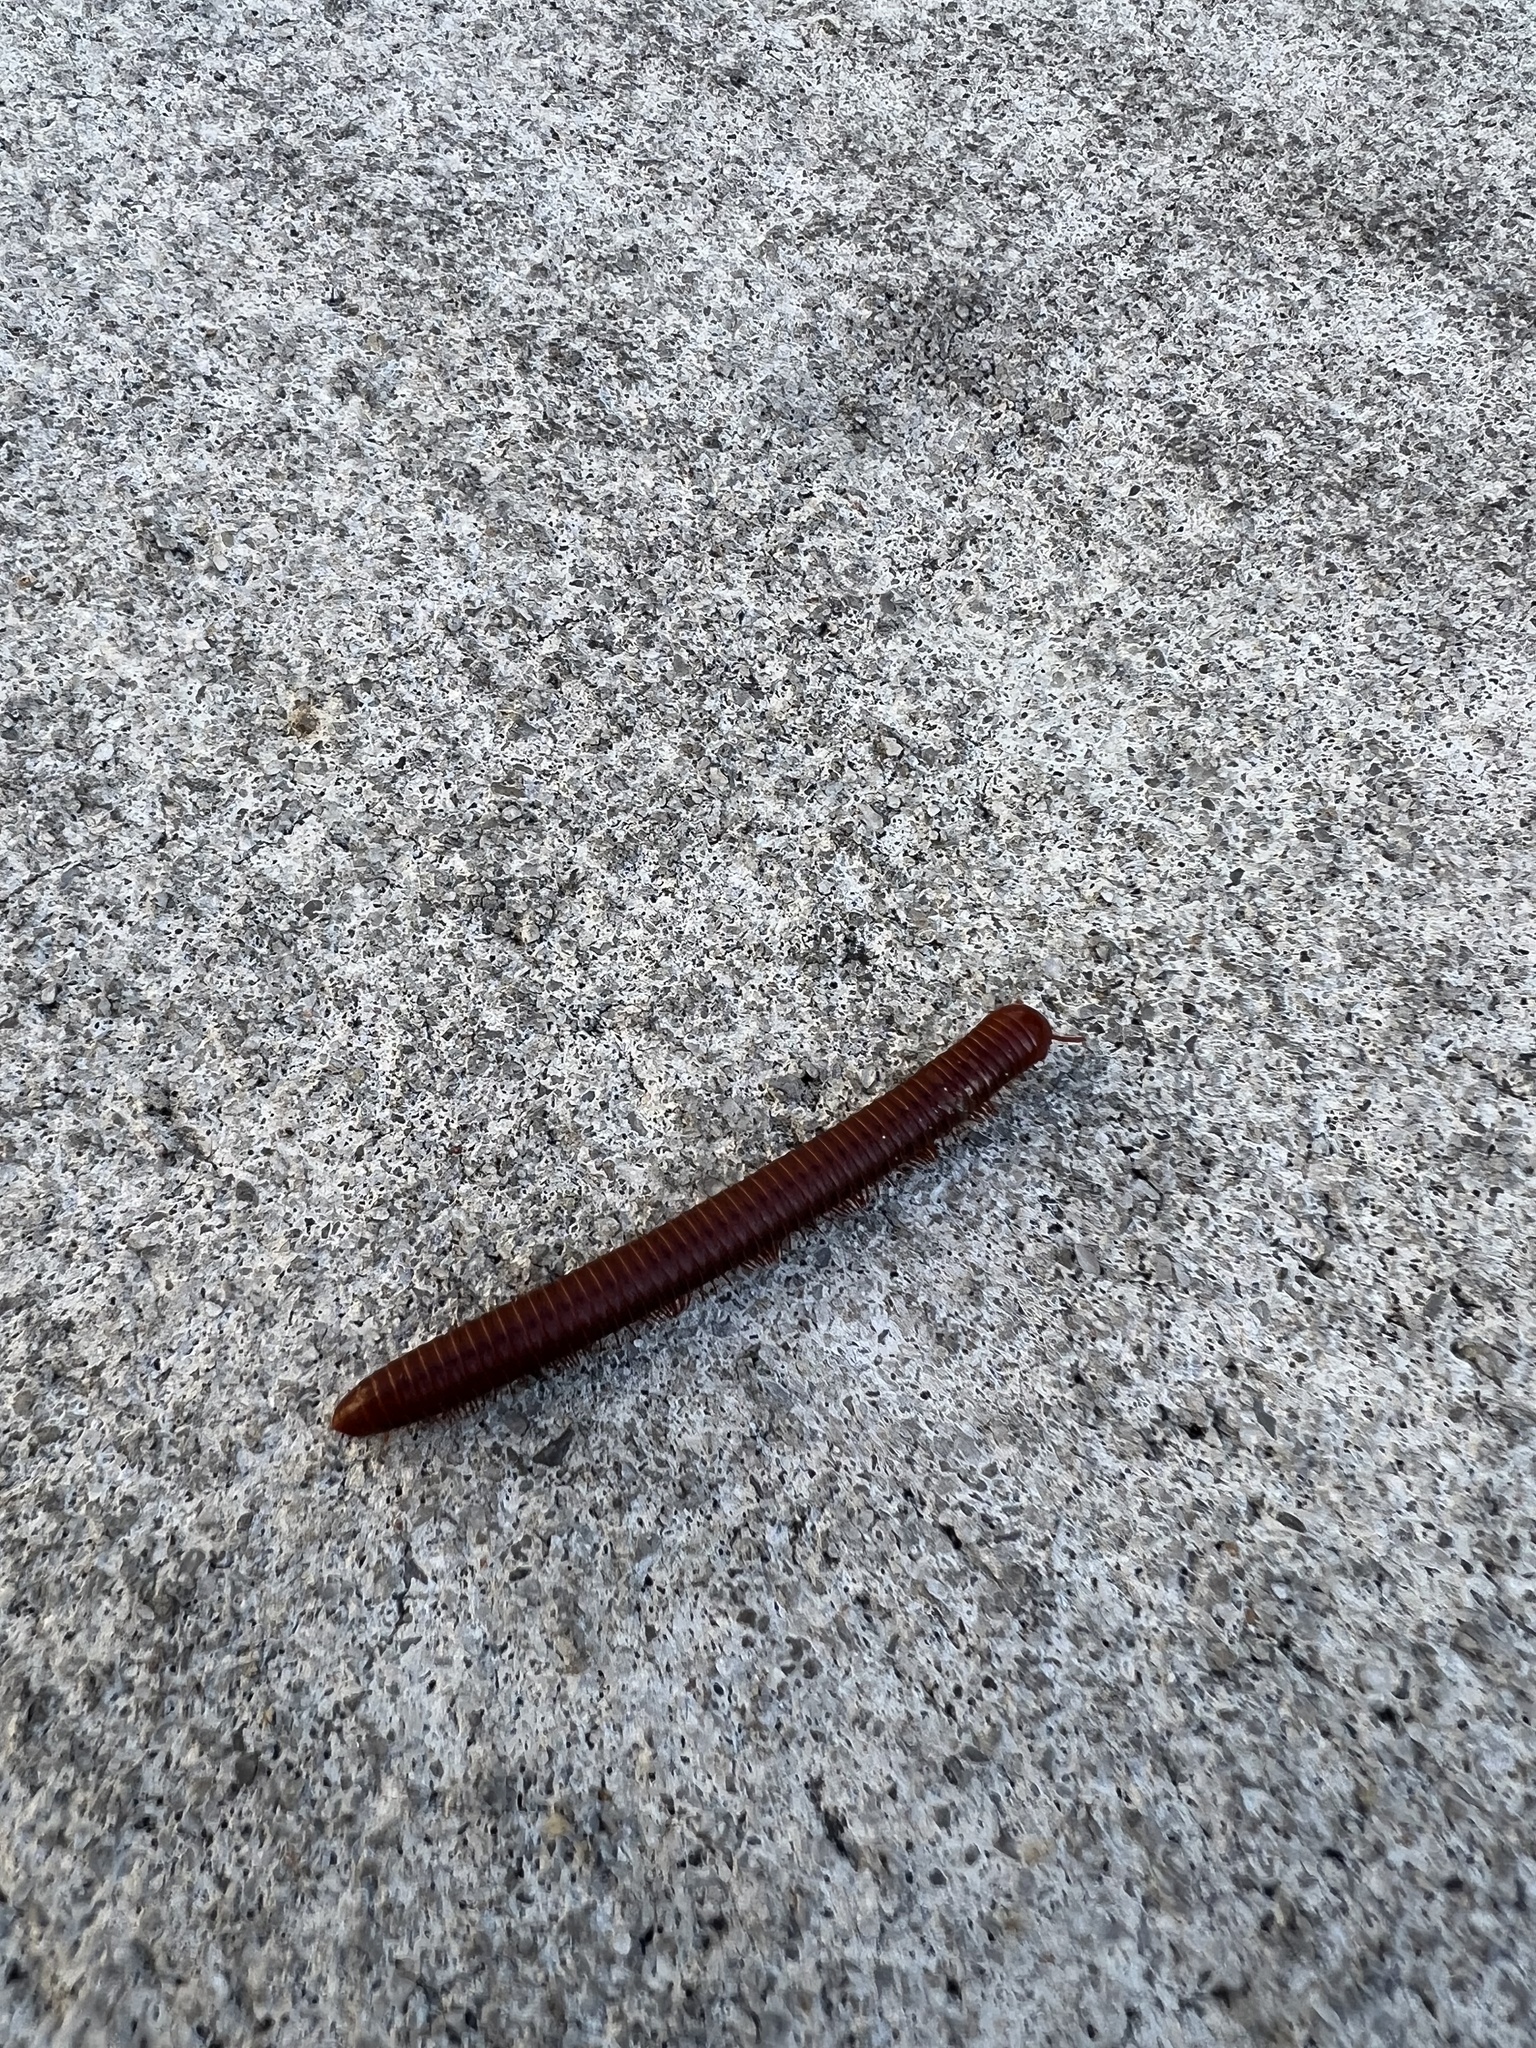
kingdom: Animalia
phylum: Arthropoda
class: Diplopoda
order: Spirobolida
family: Pachybolidae
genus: Trigoniulus
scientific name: Trigoniulus corallinus
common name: Millipede
